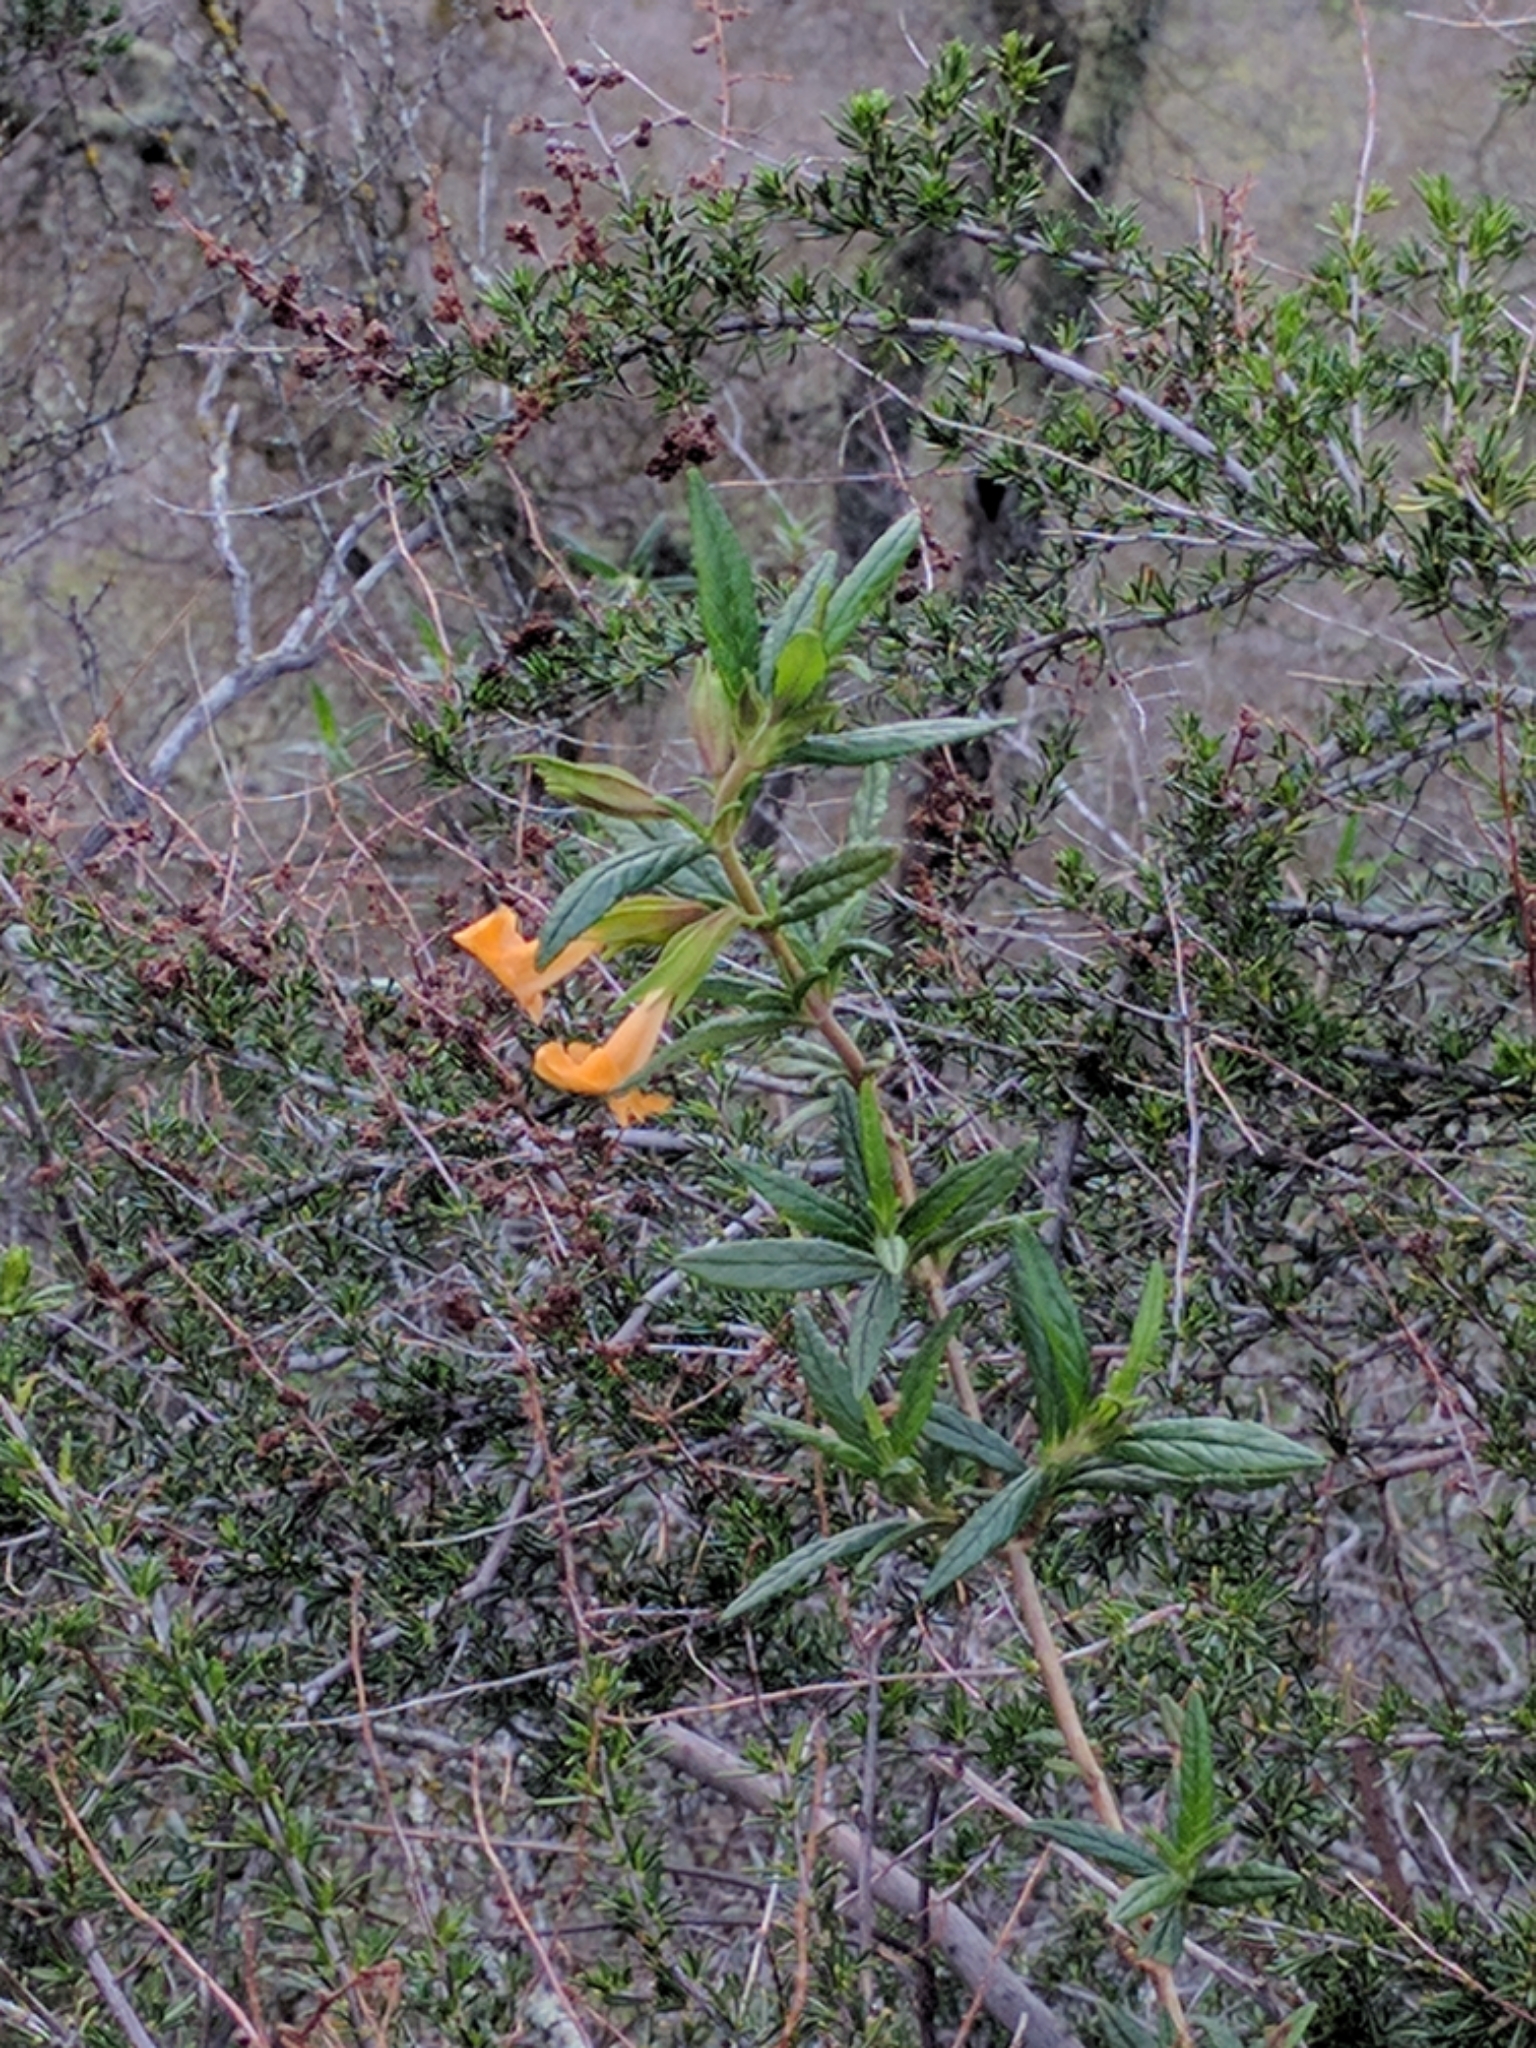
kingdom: Plantae
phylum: Tracheophyta
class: Magnoliopsida
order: Lamiales
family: Phrymaceae
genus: Diplacus
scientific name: Diplacus aurantiacus
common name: Bush monkey-flower
